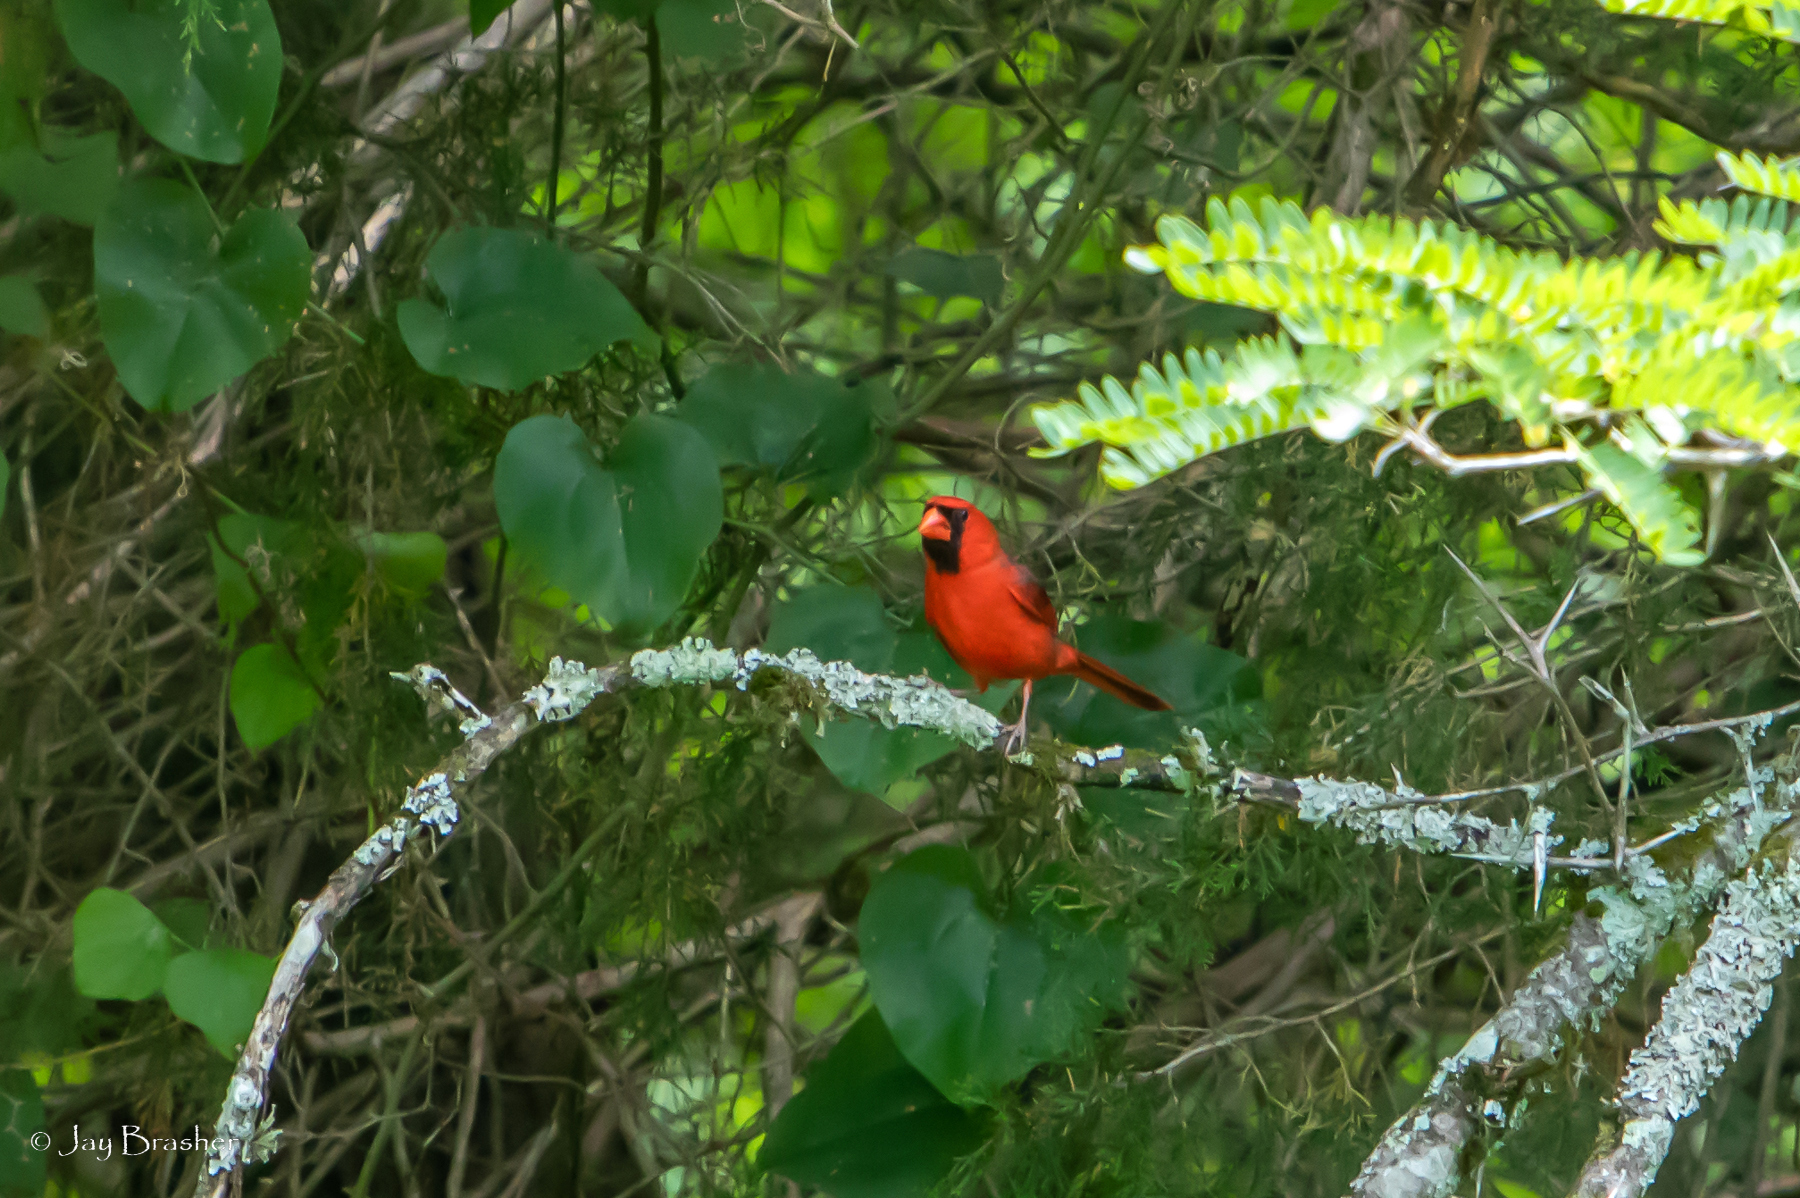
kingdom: Animalia
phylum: Chordata
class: Aves
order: Passeriformes
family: Cardinalidae
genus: Cardinalis
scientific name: Cardinalis cardinalis
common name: Northern cardinal
